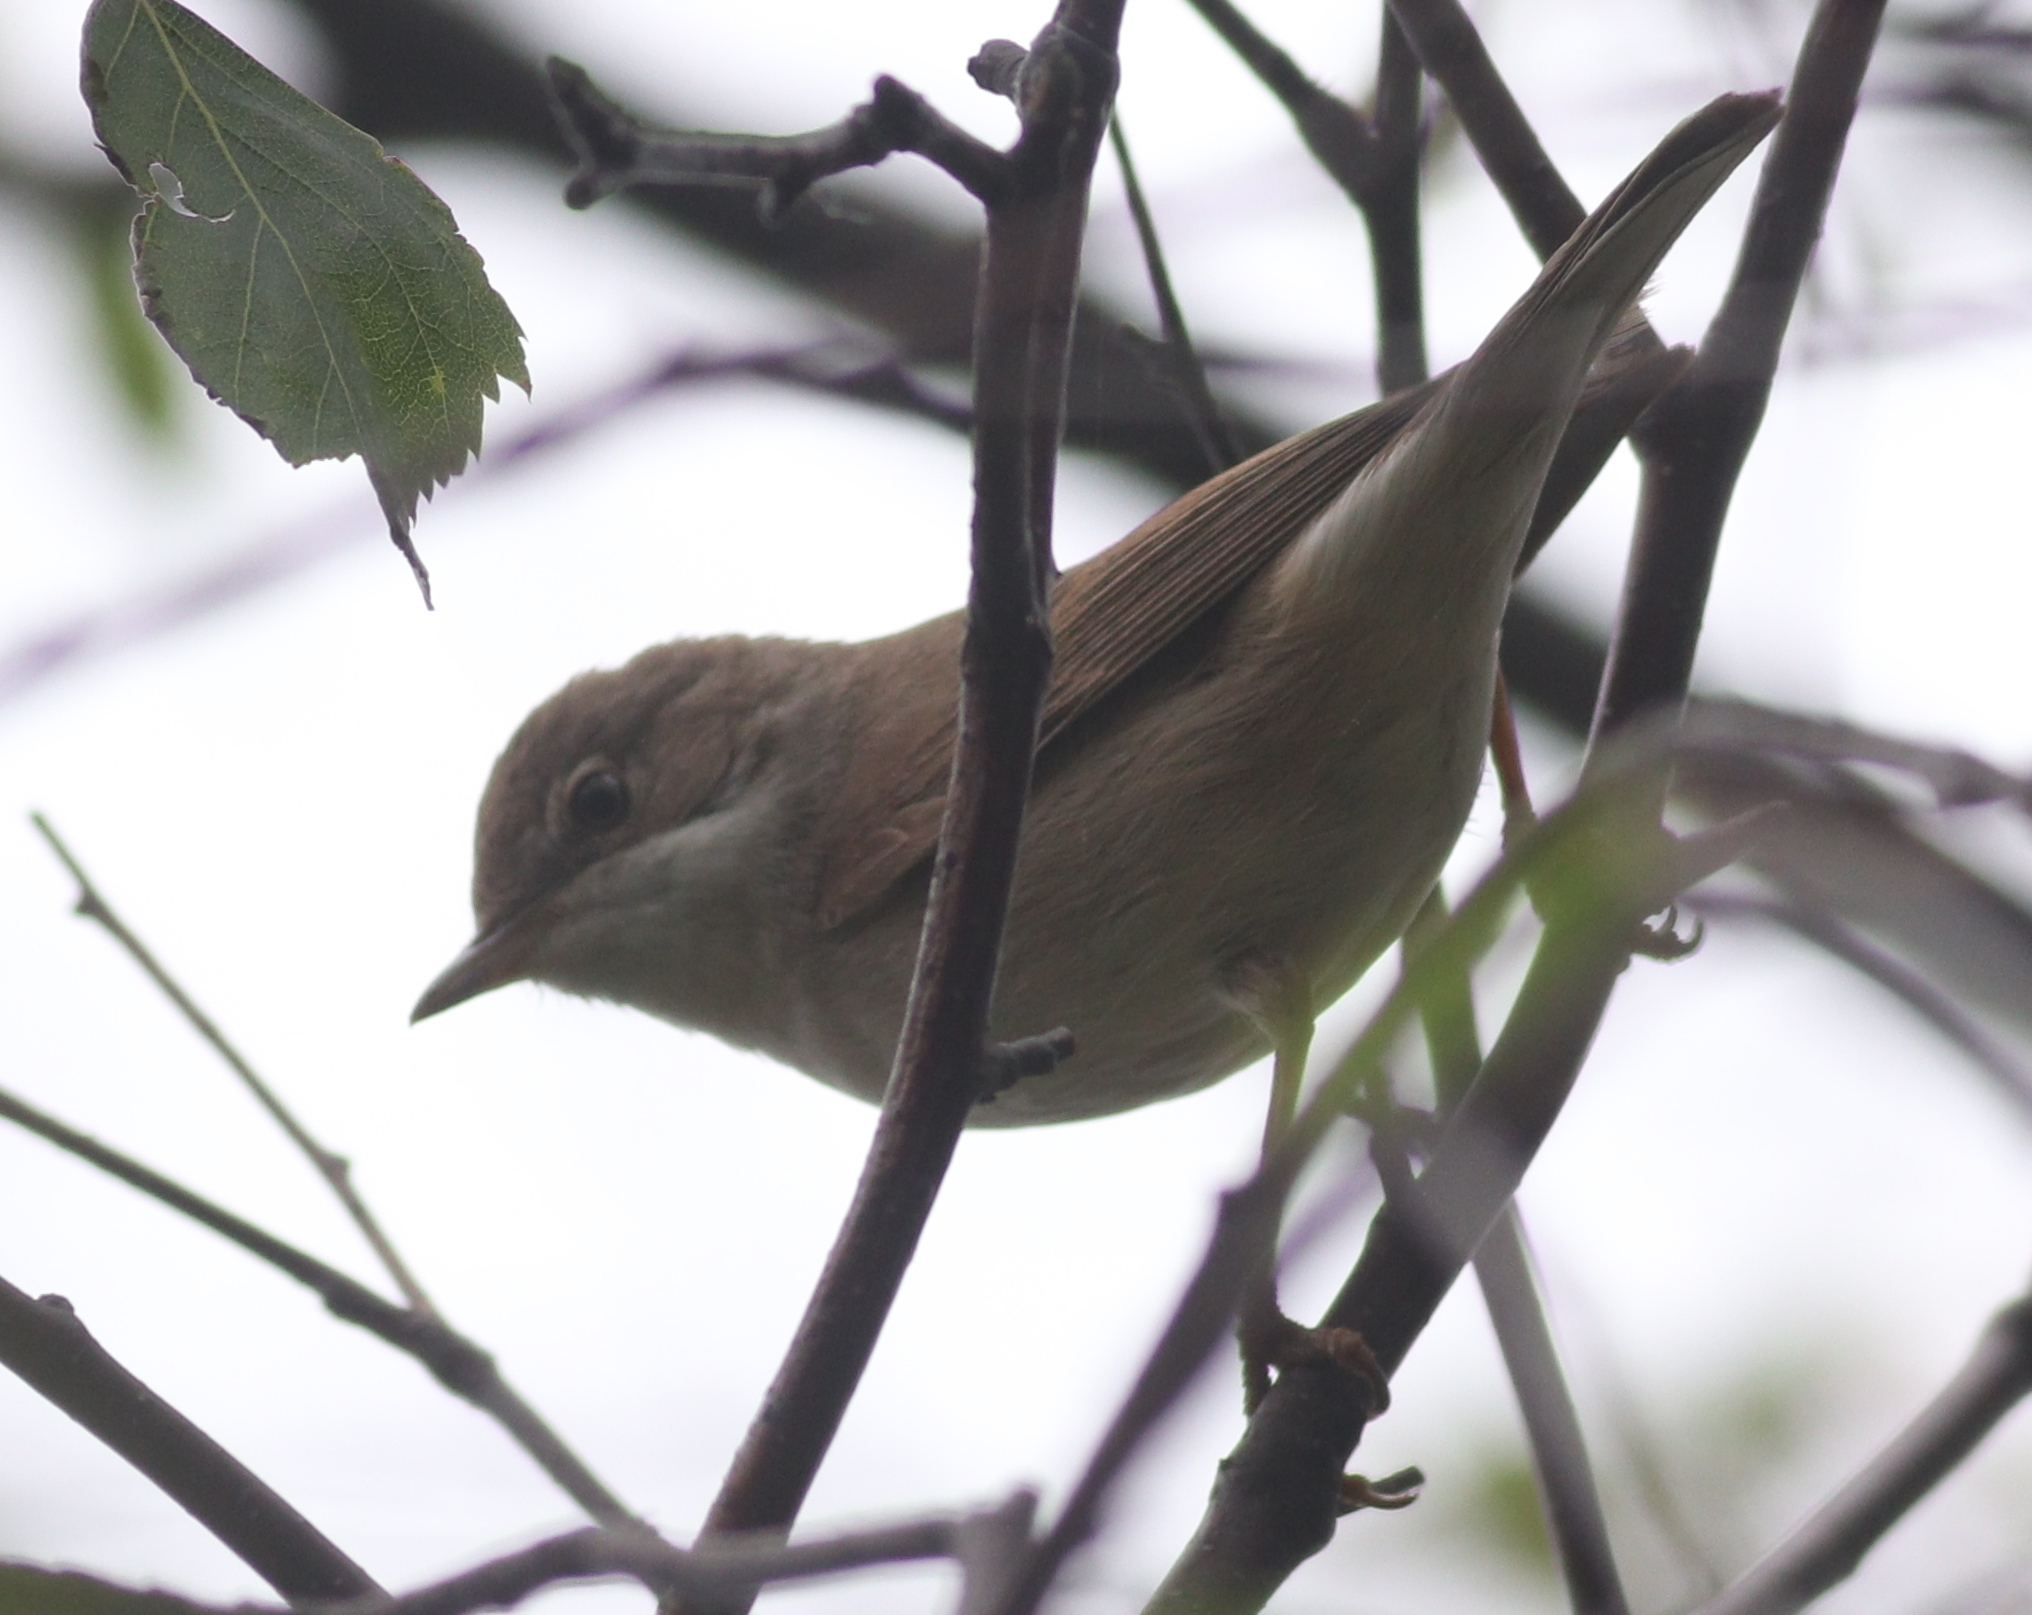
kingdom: Animalia
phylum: Chordata
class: Aves
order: Passeriformes
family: Sylviidae
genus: Sylvia
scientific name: Sylvia communis
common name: Common whitethroat
